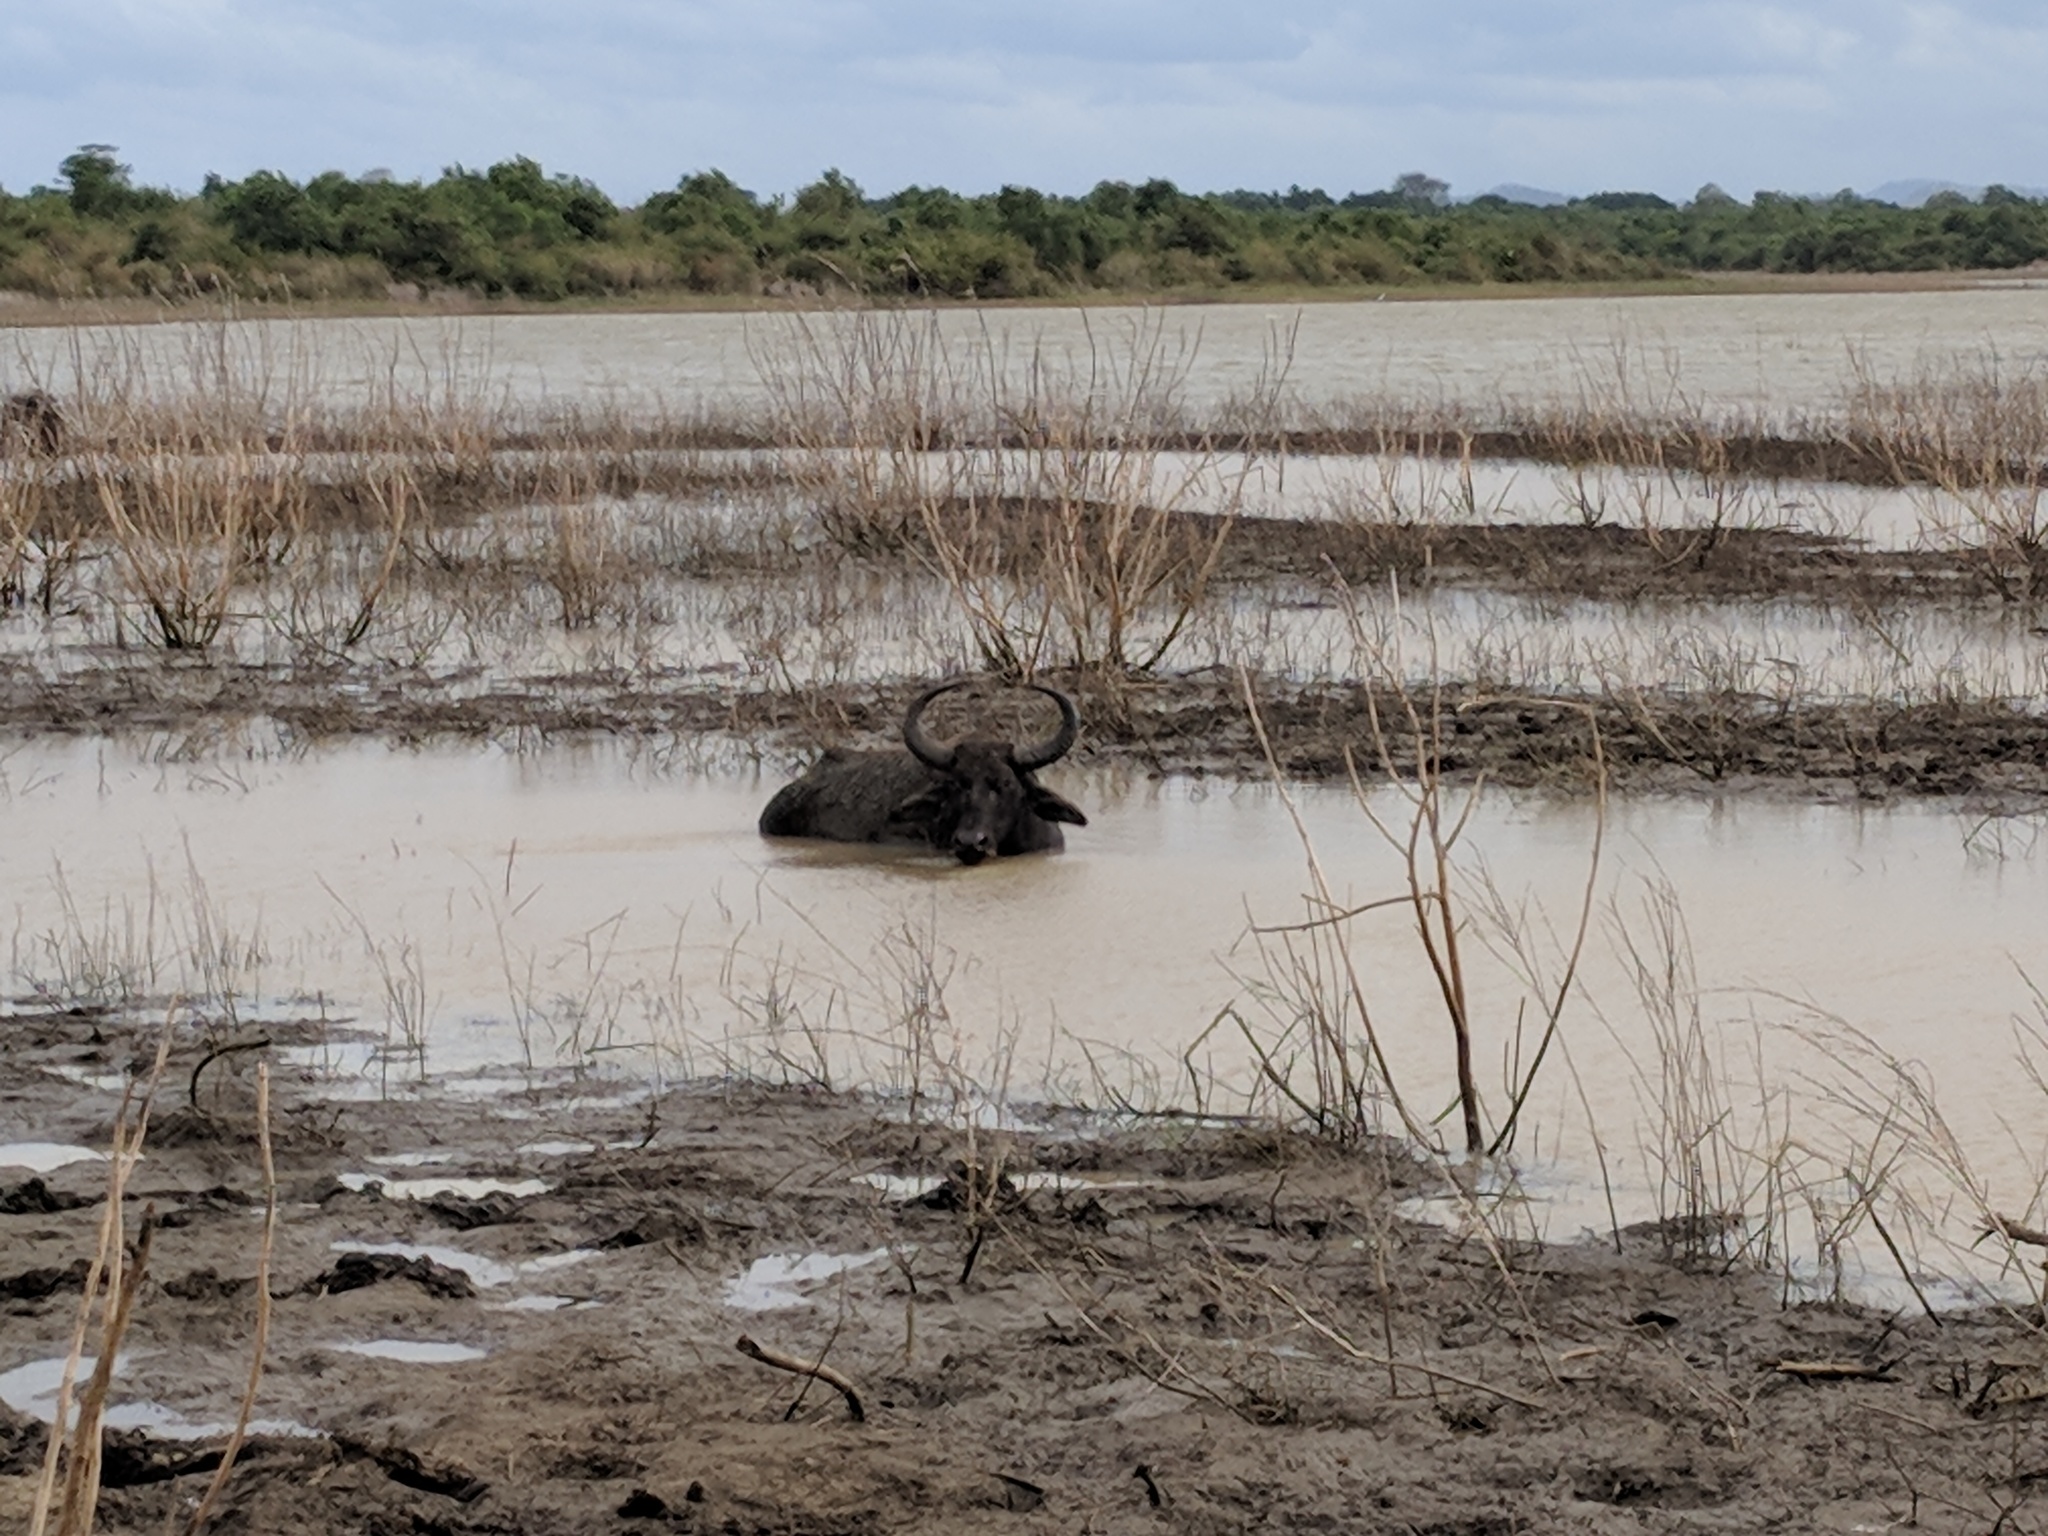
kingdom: Animalia
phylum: Chordata
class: Mammalia
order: Artiodactyla
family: Bovidae
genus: Bubalus
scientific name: Bubalus bubalis
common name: Water buffalo
